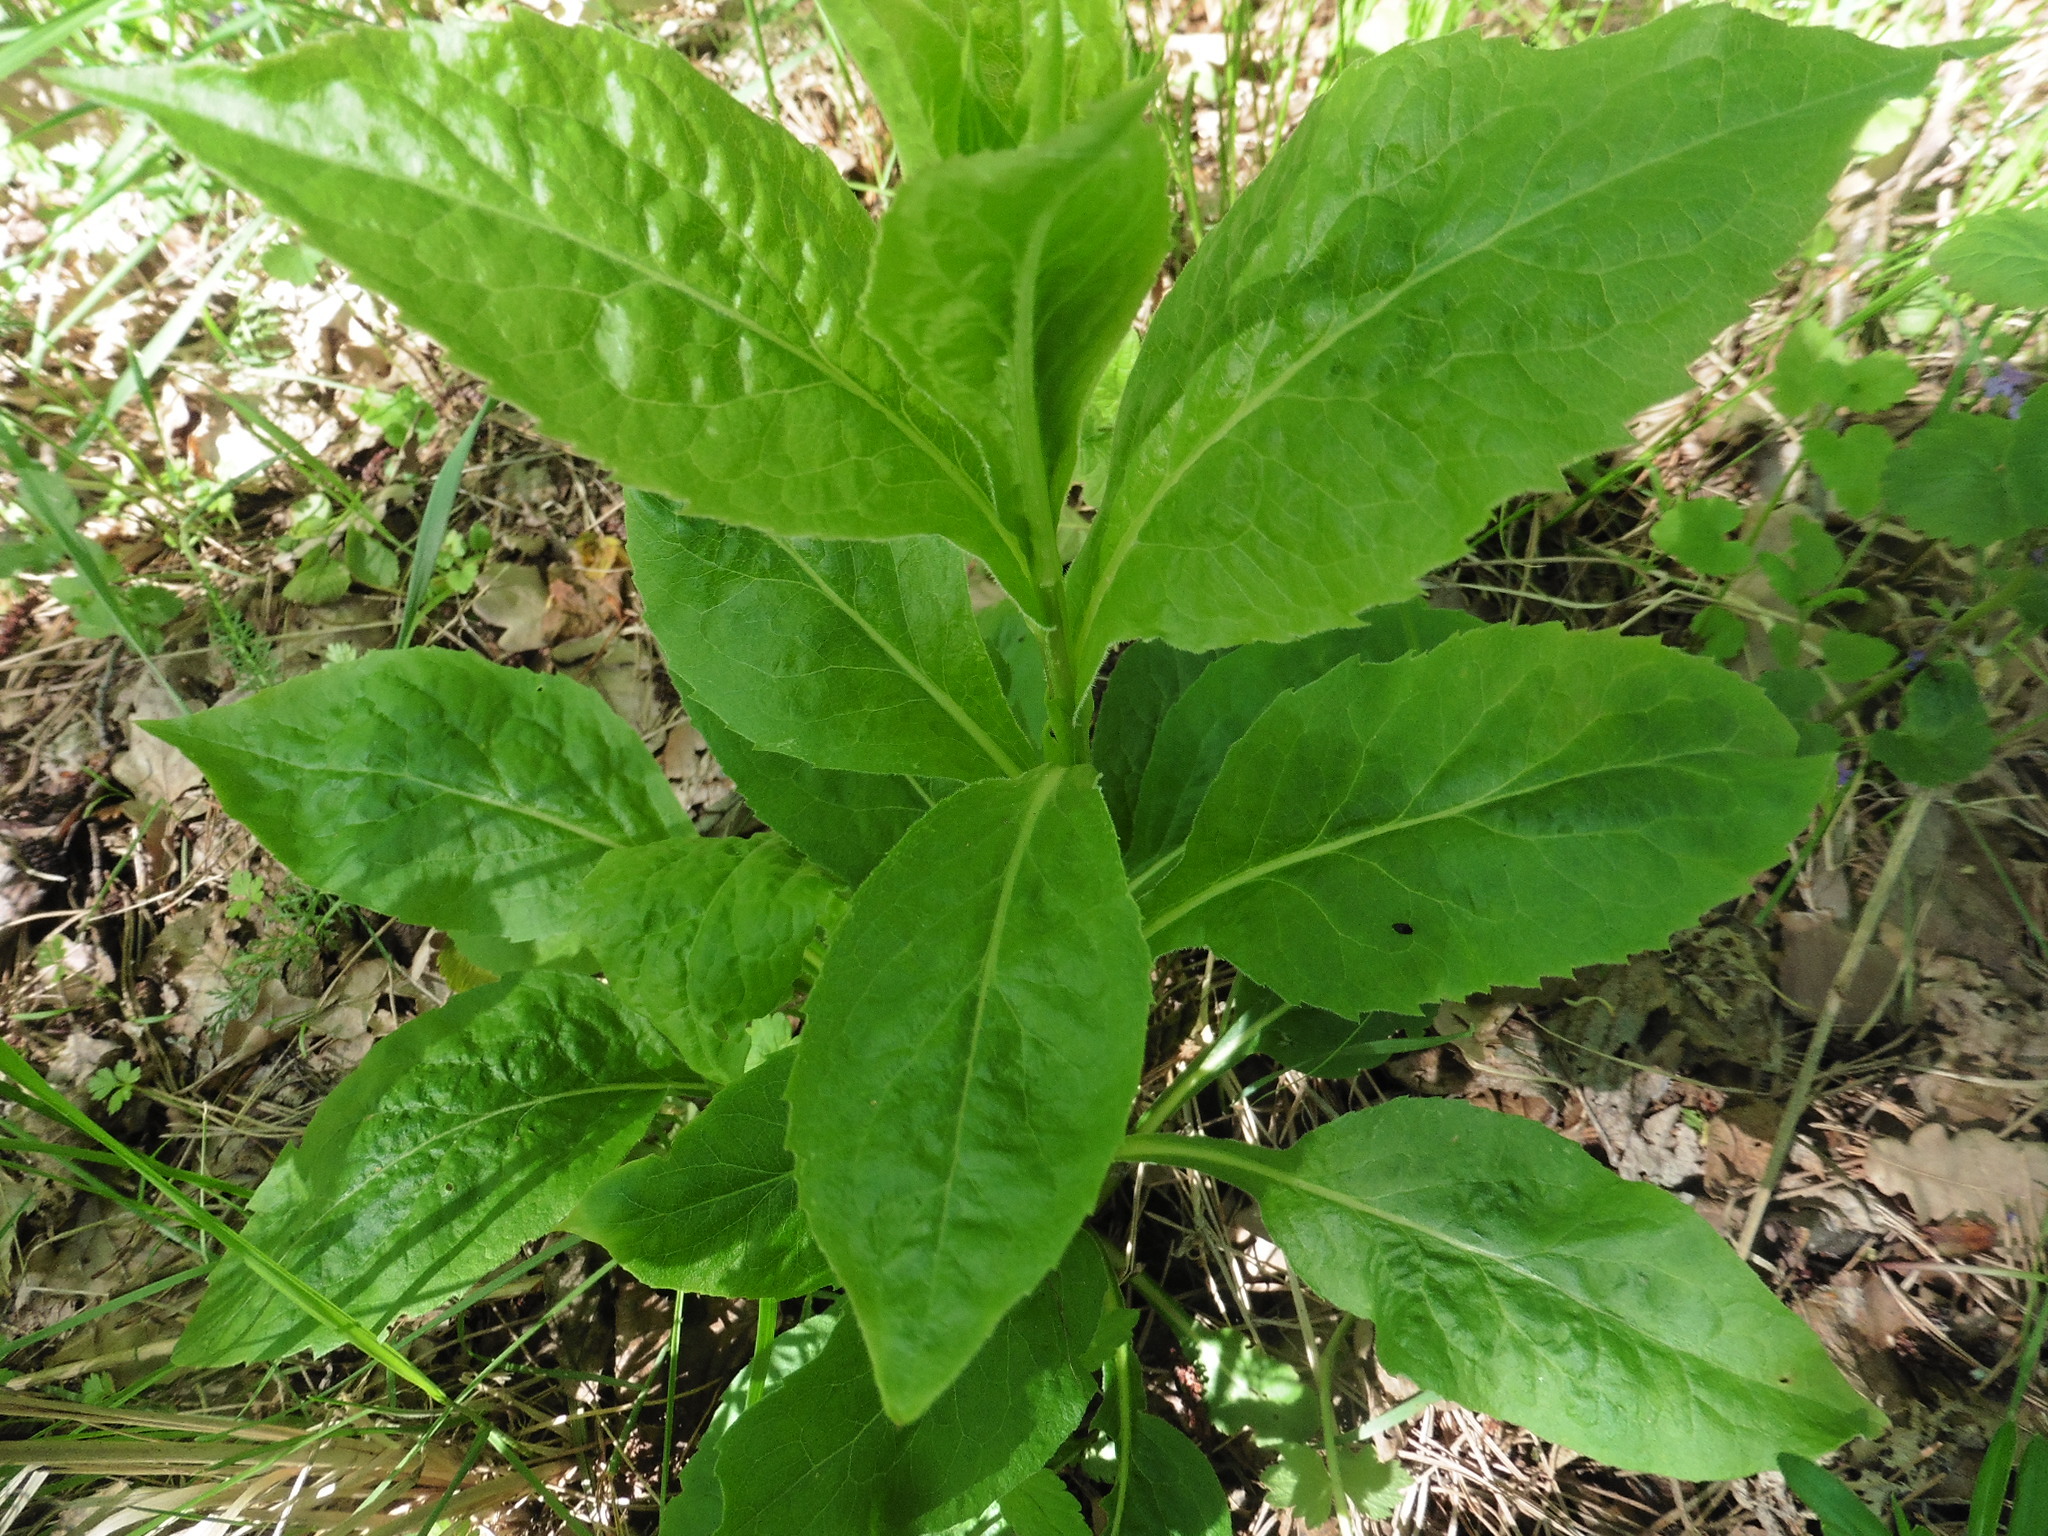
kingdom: Plantae
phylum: Tracheophyta
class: Magnoliopsida
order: Asterales
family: Asteraceae
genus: Solidago
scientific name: Solidago virgaurea
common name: Goldenrod
